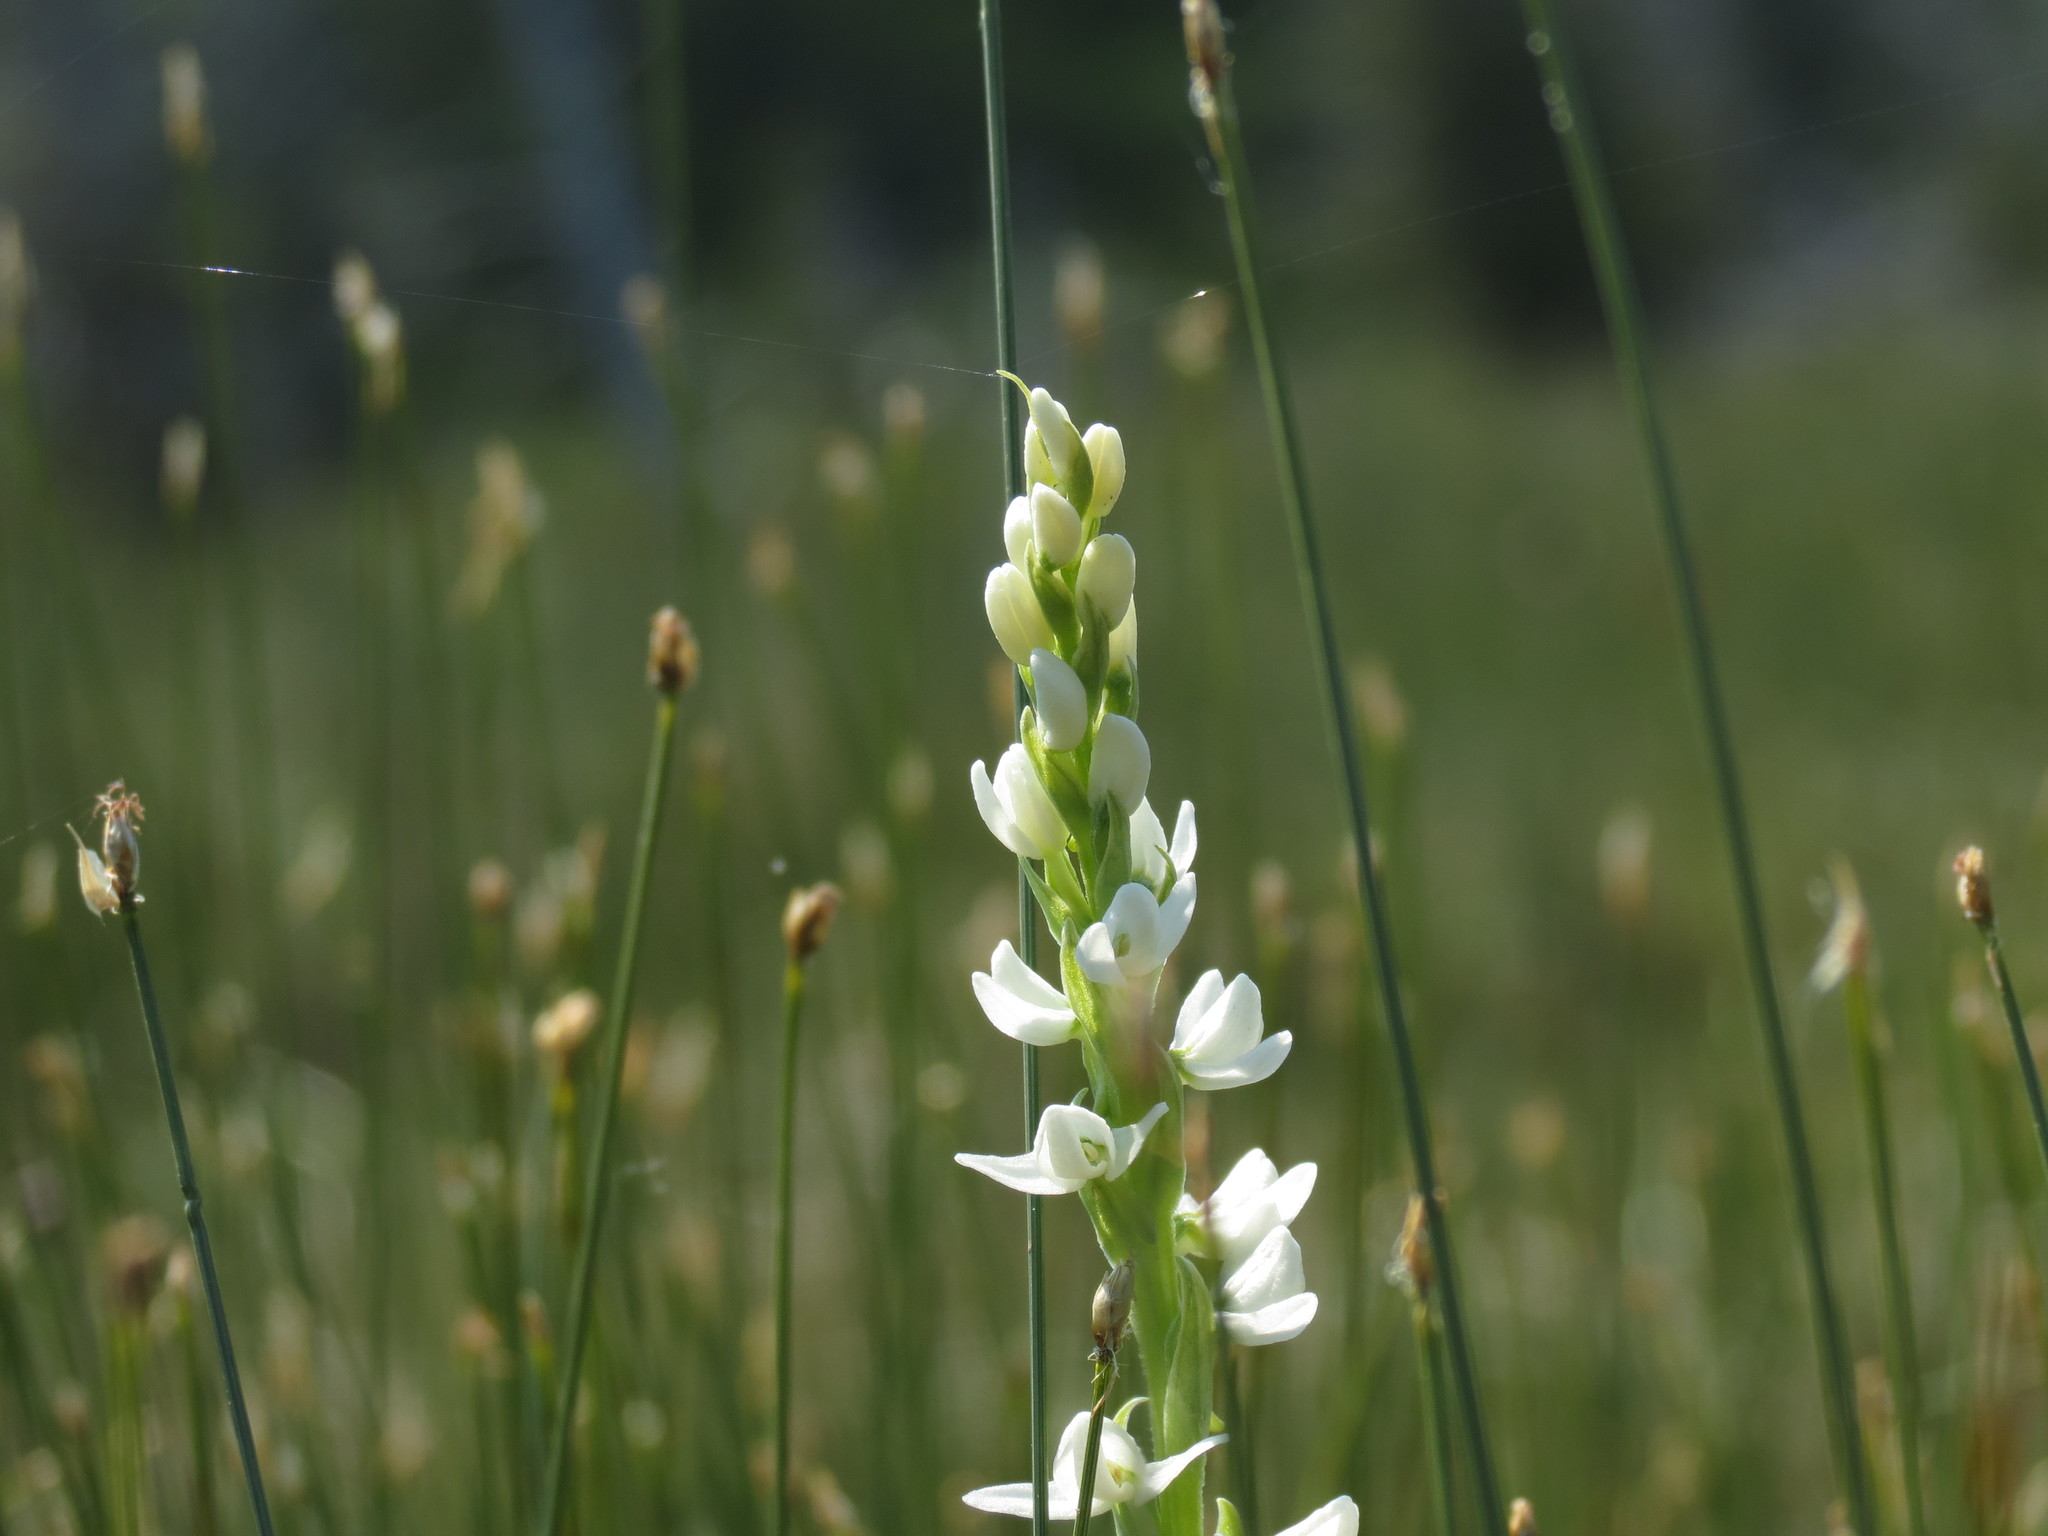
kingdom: Plantae
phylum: Tracheophyta
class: Liliopsida
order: Asparagales
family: Orchidaceae
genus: Platanthera
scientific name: Platanthera dilatata
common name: Bog candles
